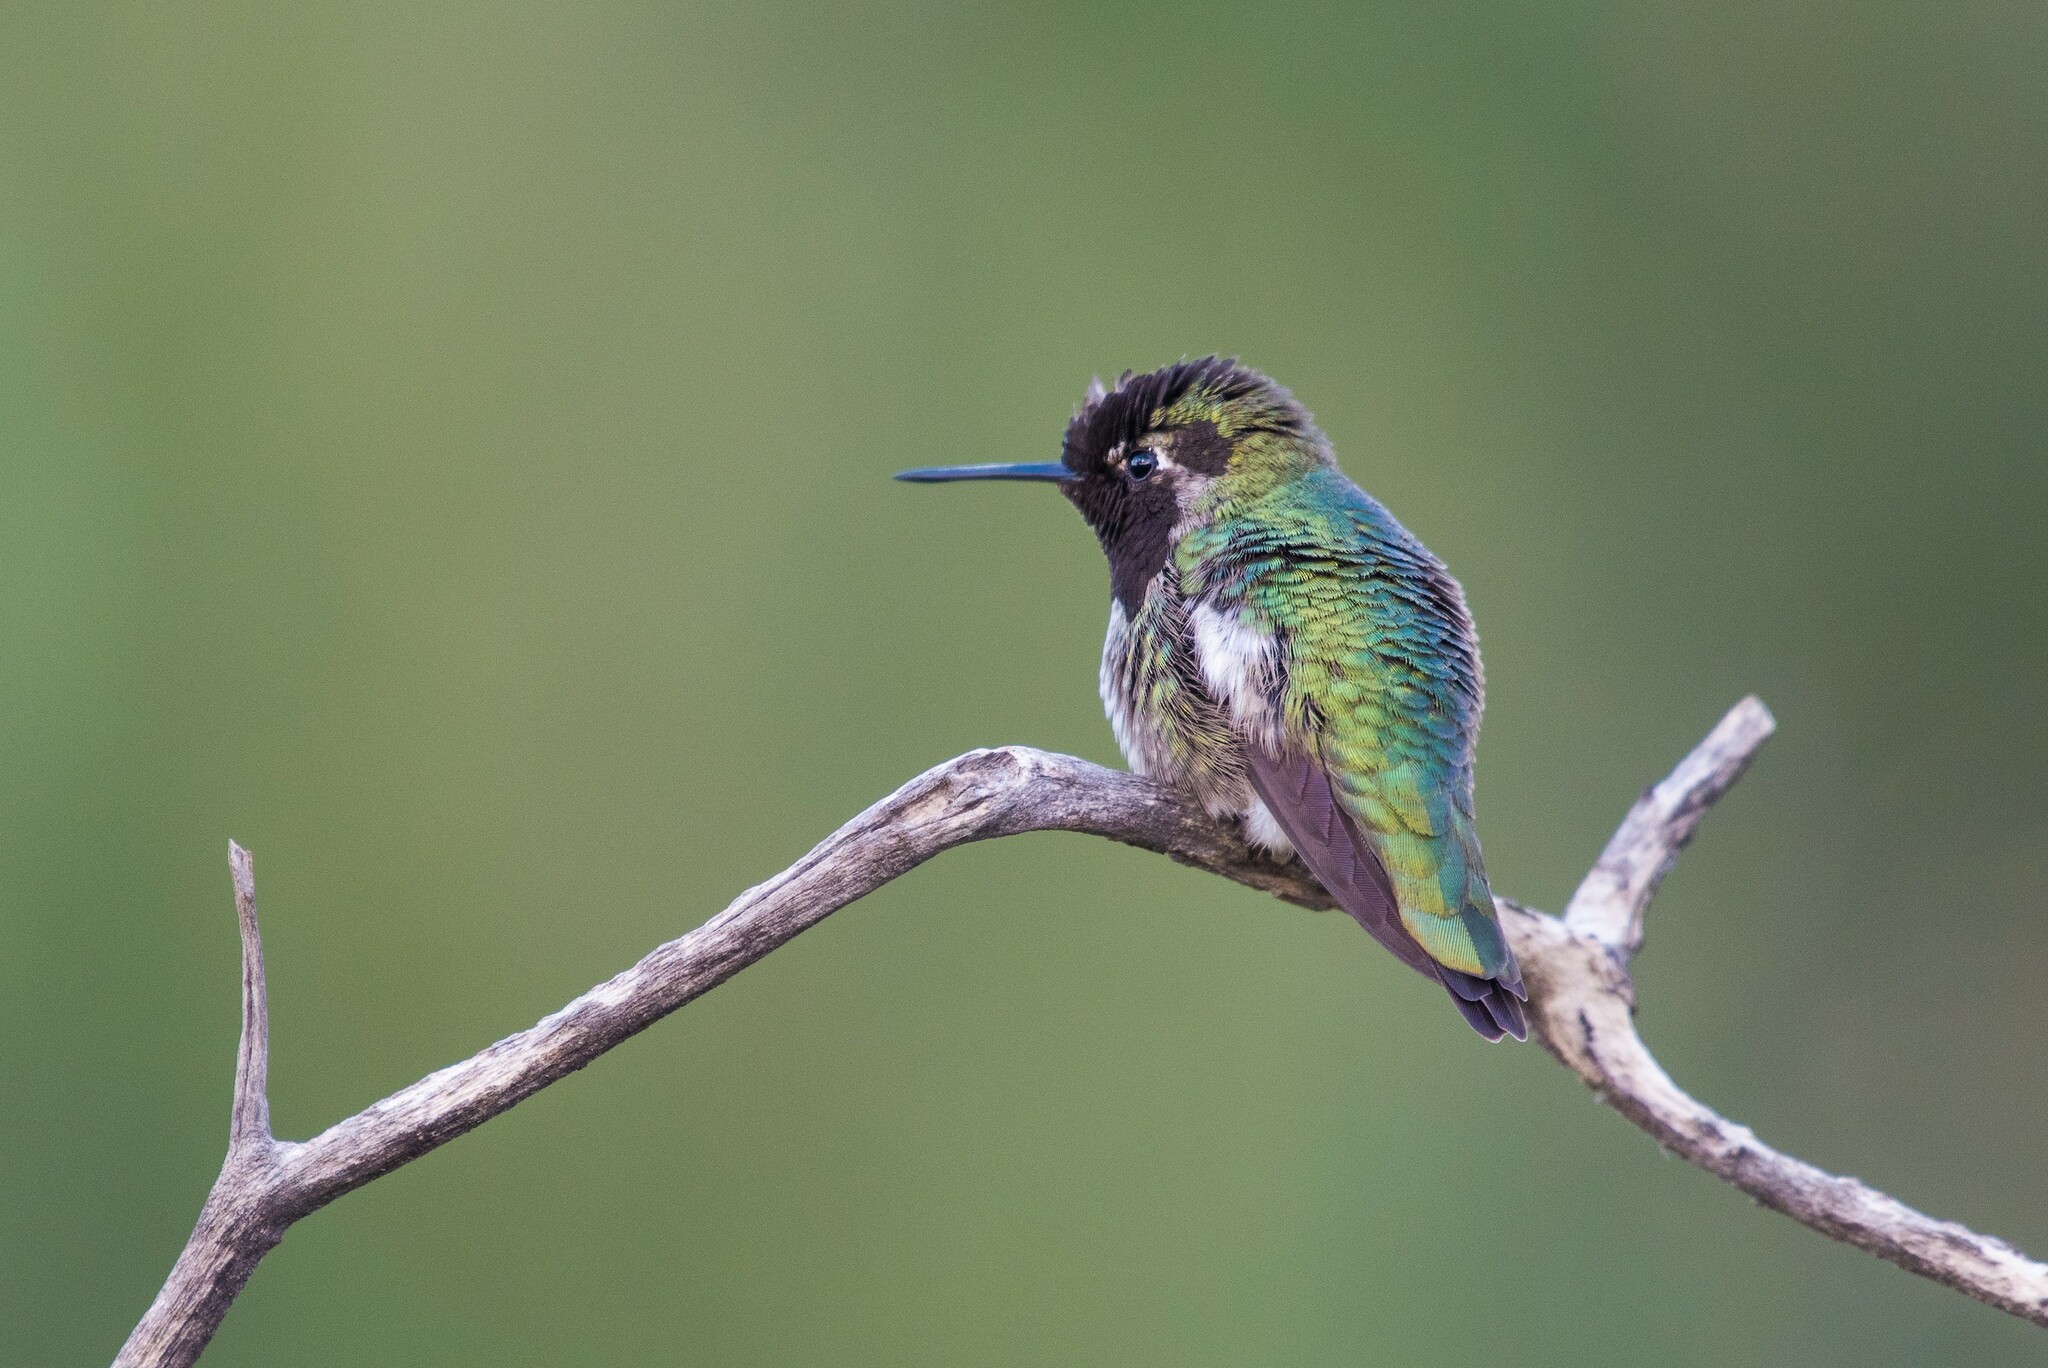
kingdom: Animalia
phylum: Chordata
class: Aves
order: Apodiformes
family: Trochilidae
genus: Calypte
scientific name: Calypte anna
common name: Anna's hummingbird
